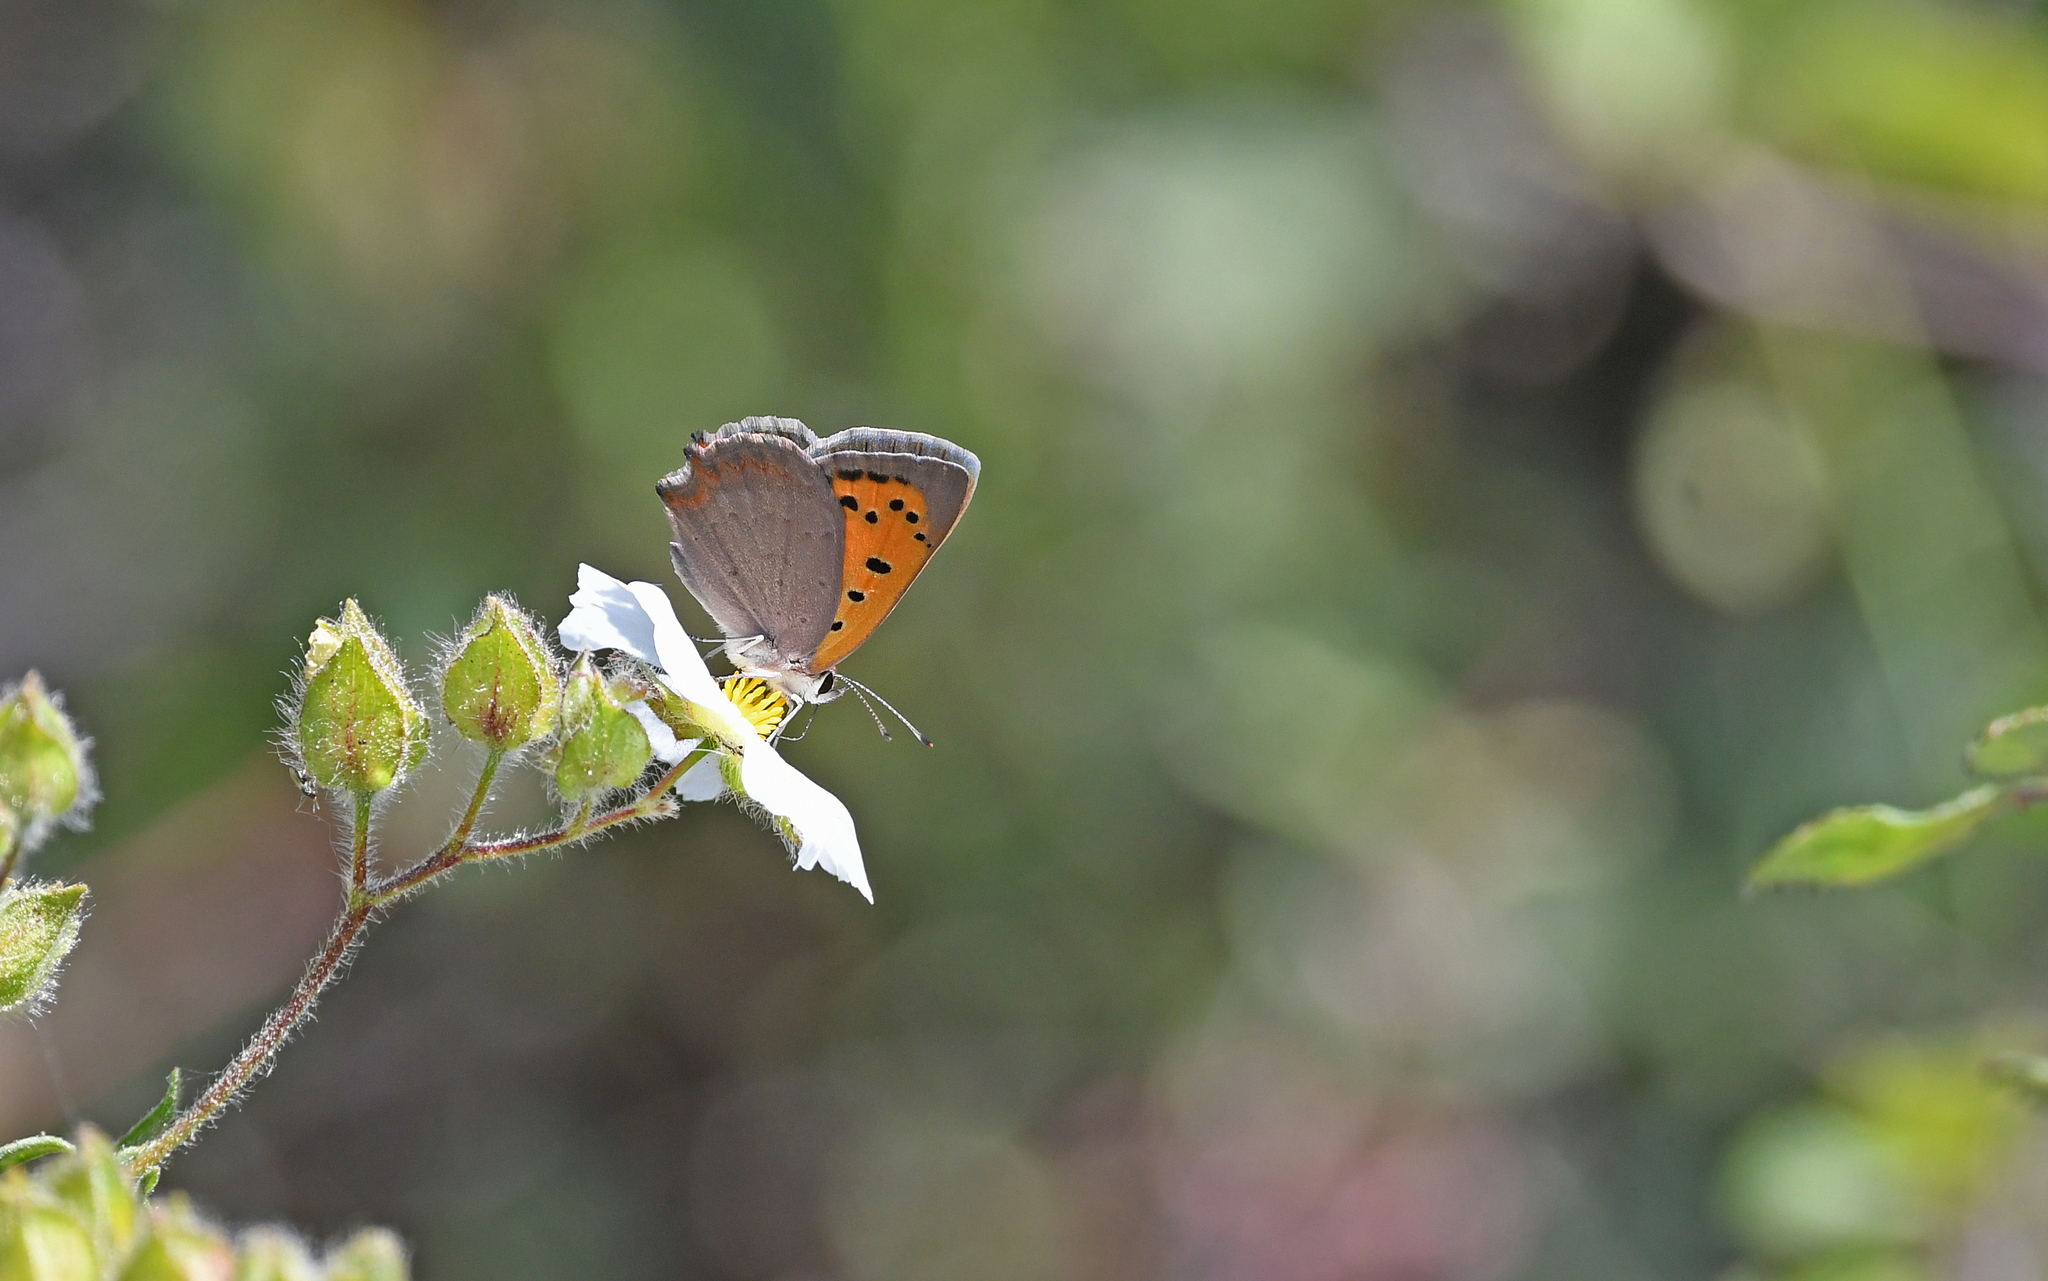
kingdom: Animalia
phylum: Arthropoda
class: Insecta
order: Lepidoptera
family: Lycaenidae
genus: Lycaena
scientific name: Lycaena phlaeas
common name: Small copper
